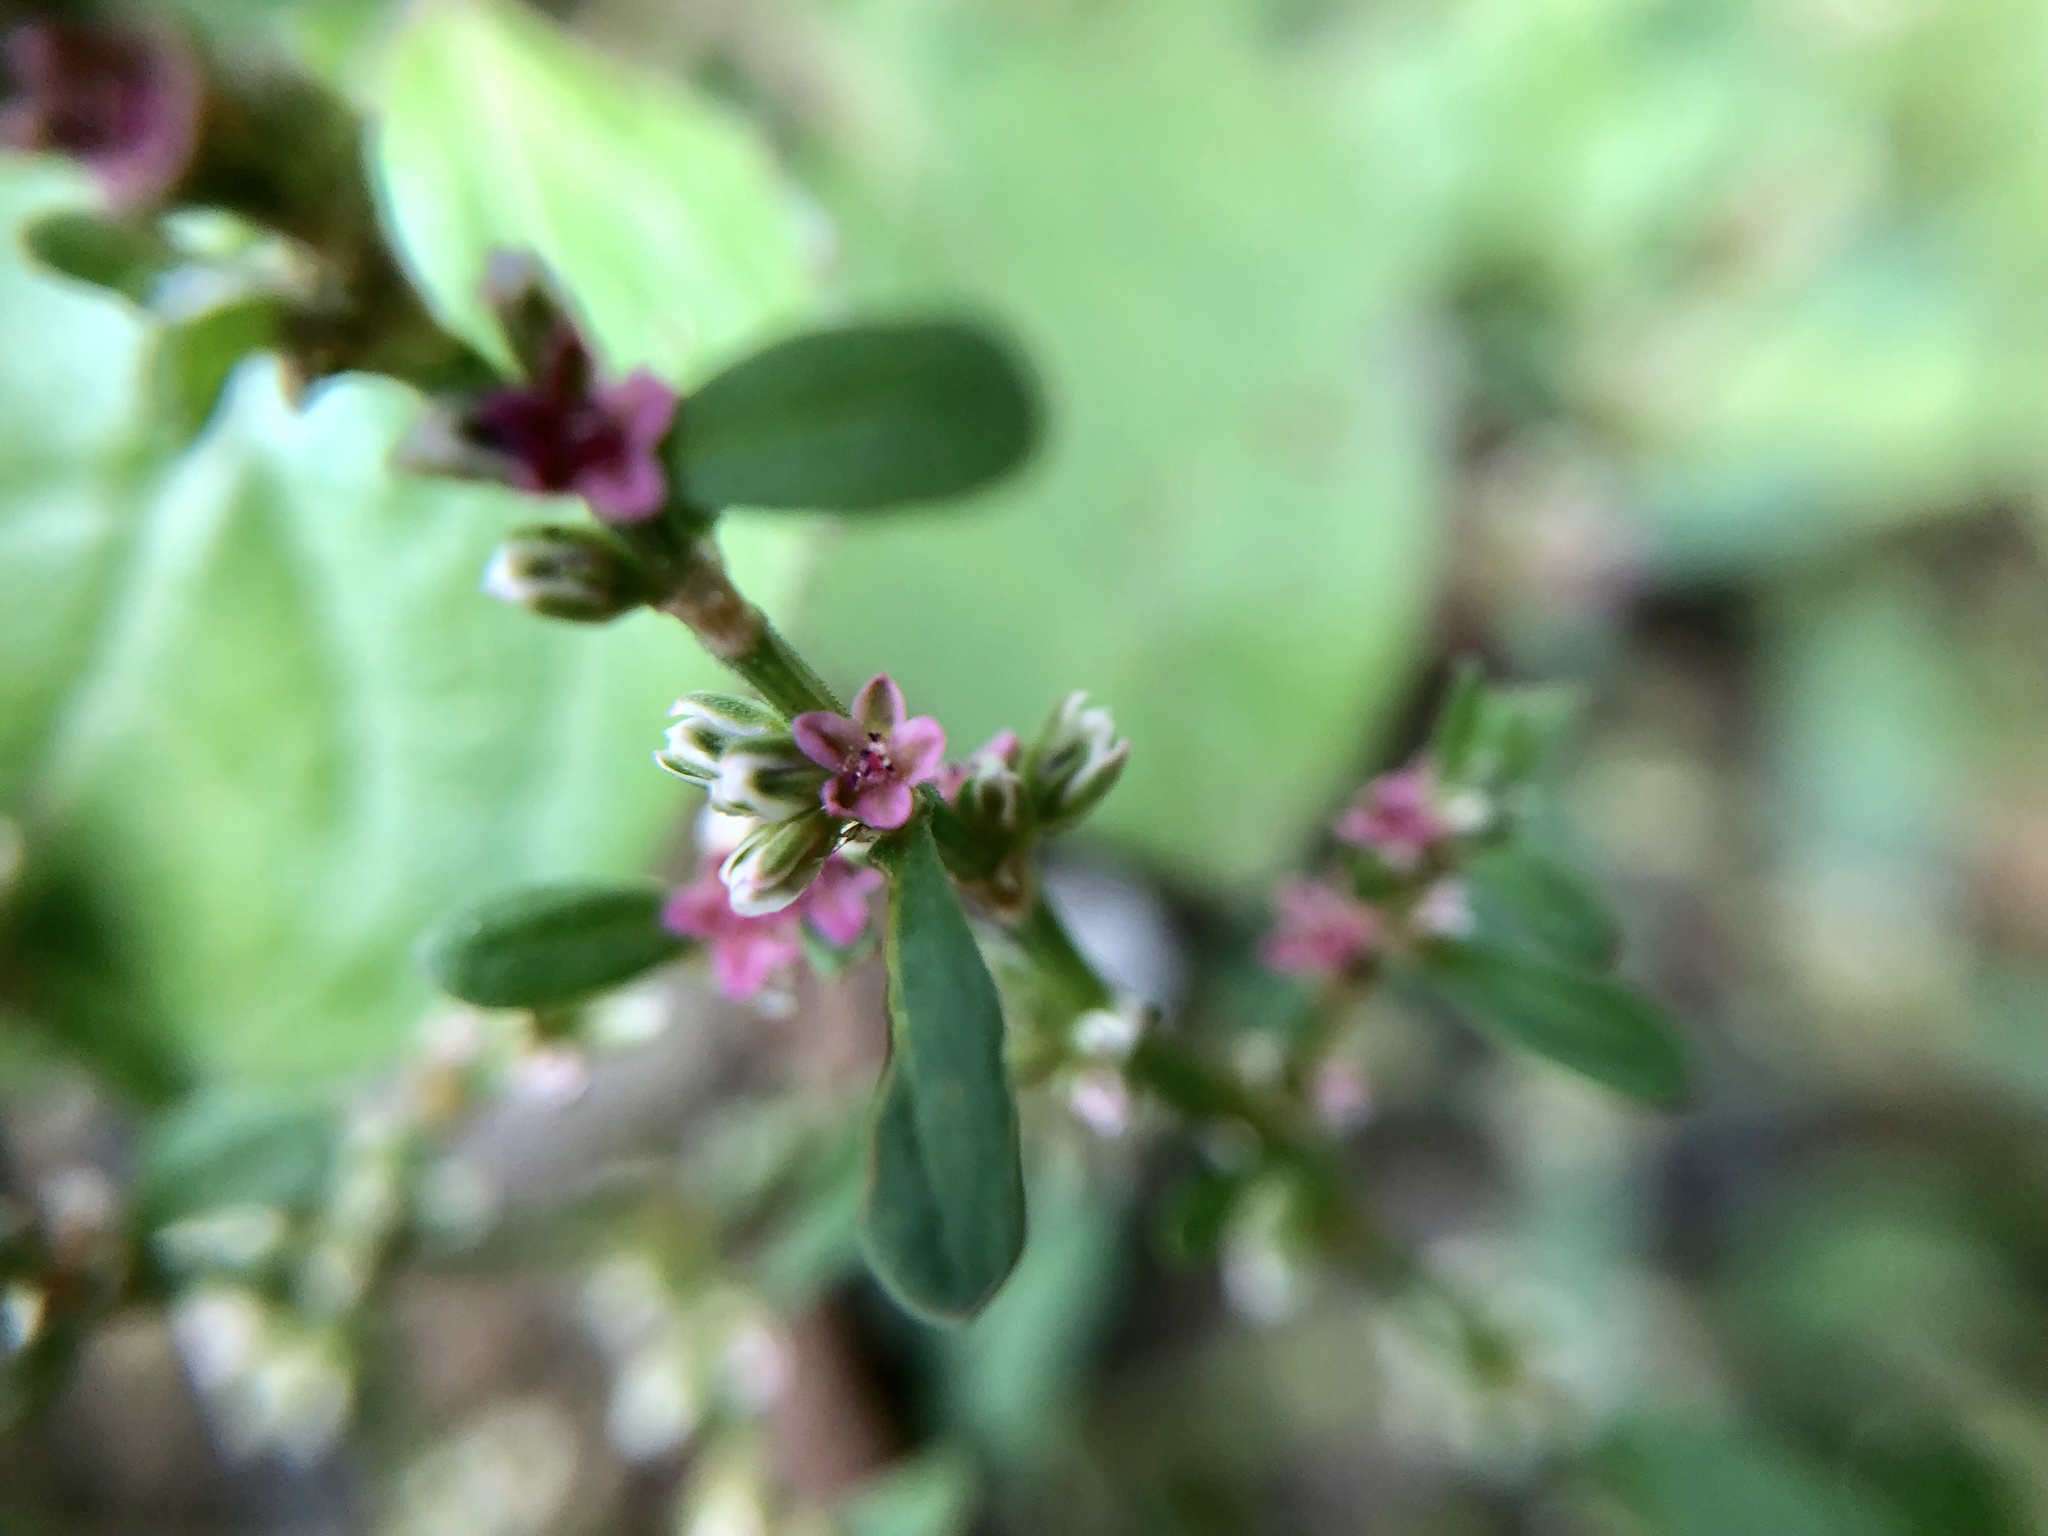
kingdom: Plantae
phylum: Tracheophyta
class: Magnoliopsida
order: Caryophyllales
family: Polygonaceae
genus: Polygonum
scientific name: Polygonum plebeium
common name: Common knotweed
